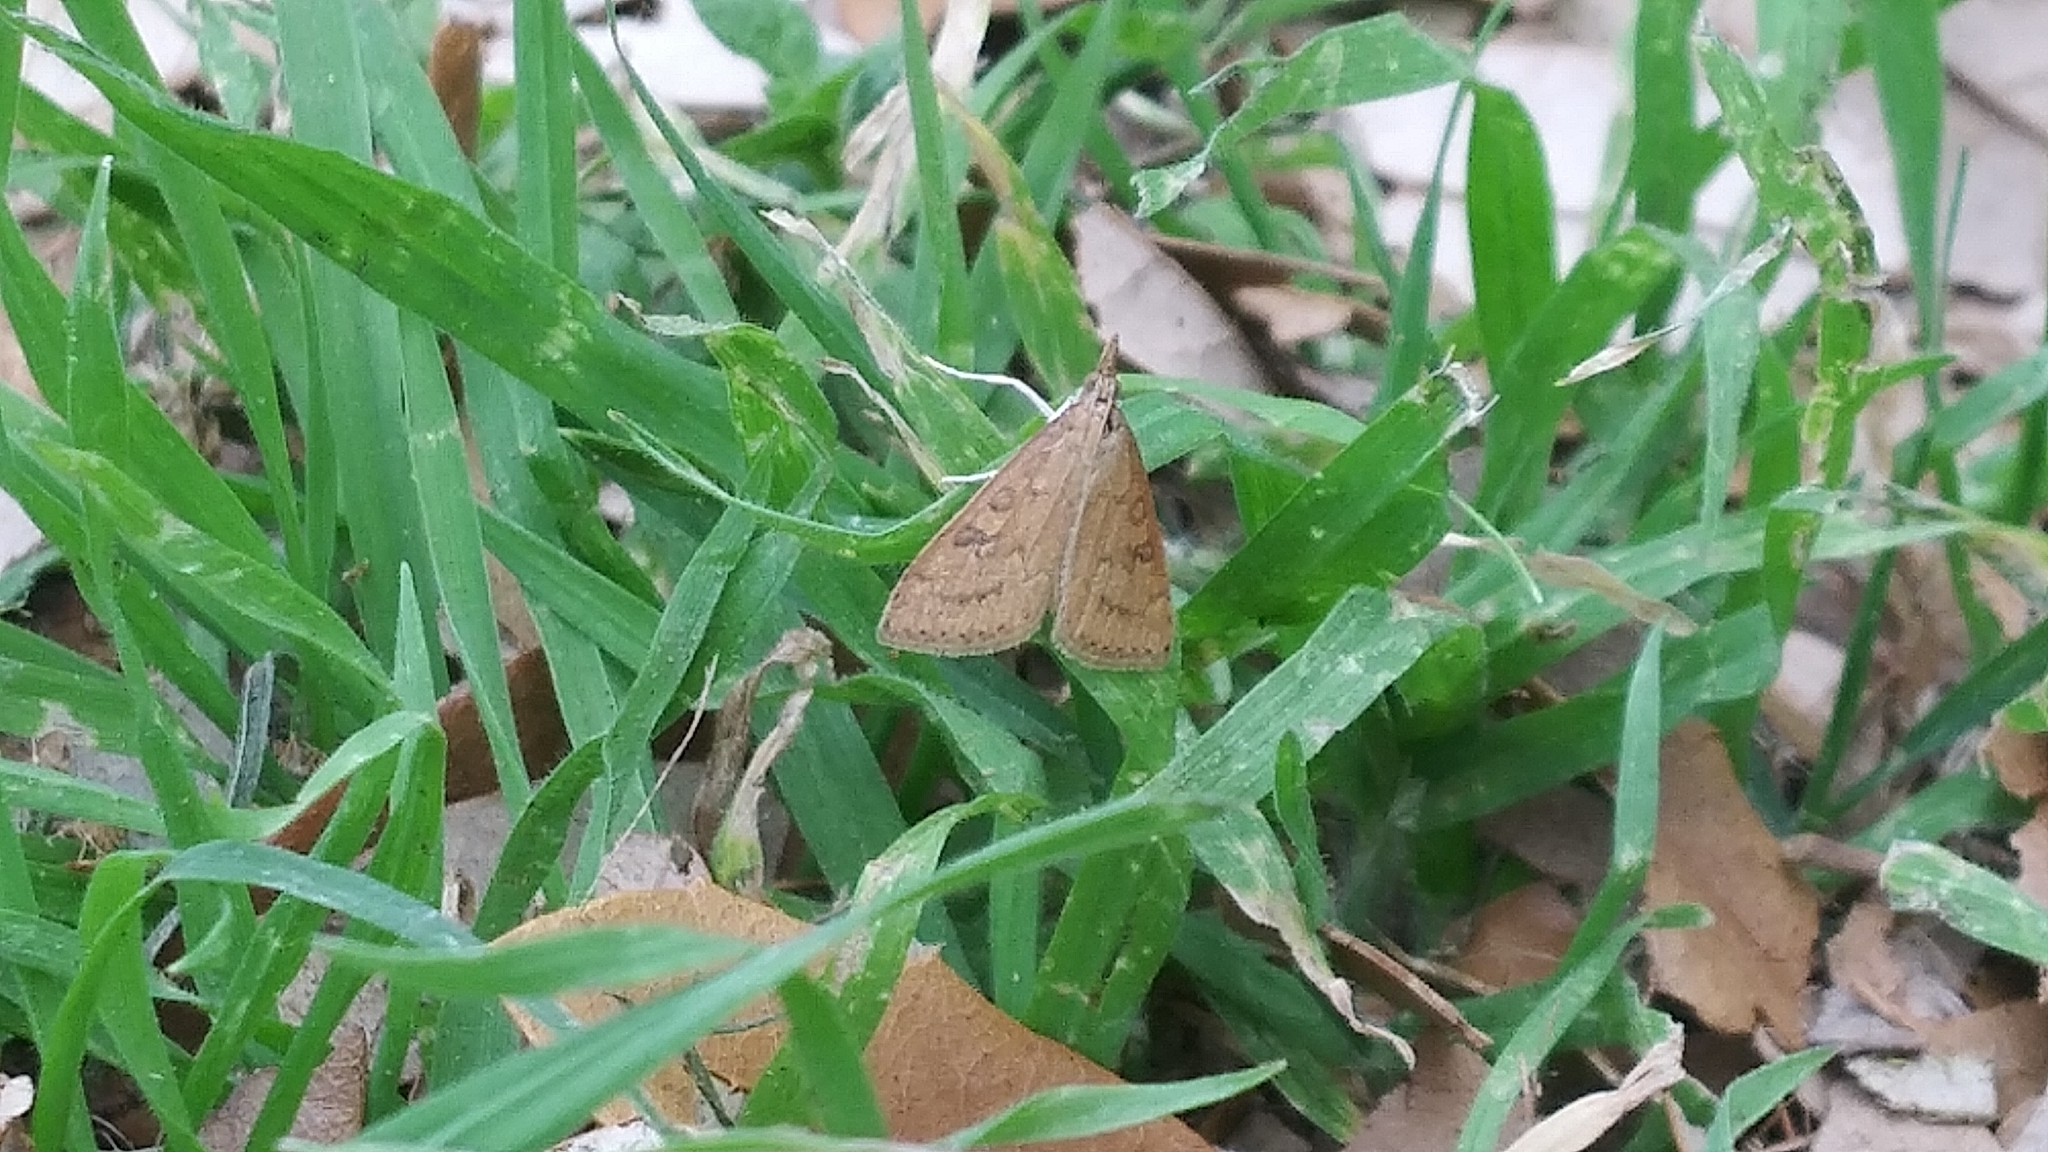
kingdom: Animalia
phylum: Arthropoda
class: Insecta
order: Lepidoptera
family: Crambidae
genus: Udea
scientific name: Udea rubigalis
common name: Celery leaftier moth
